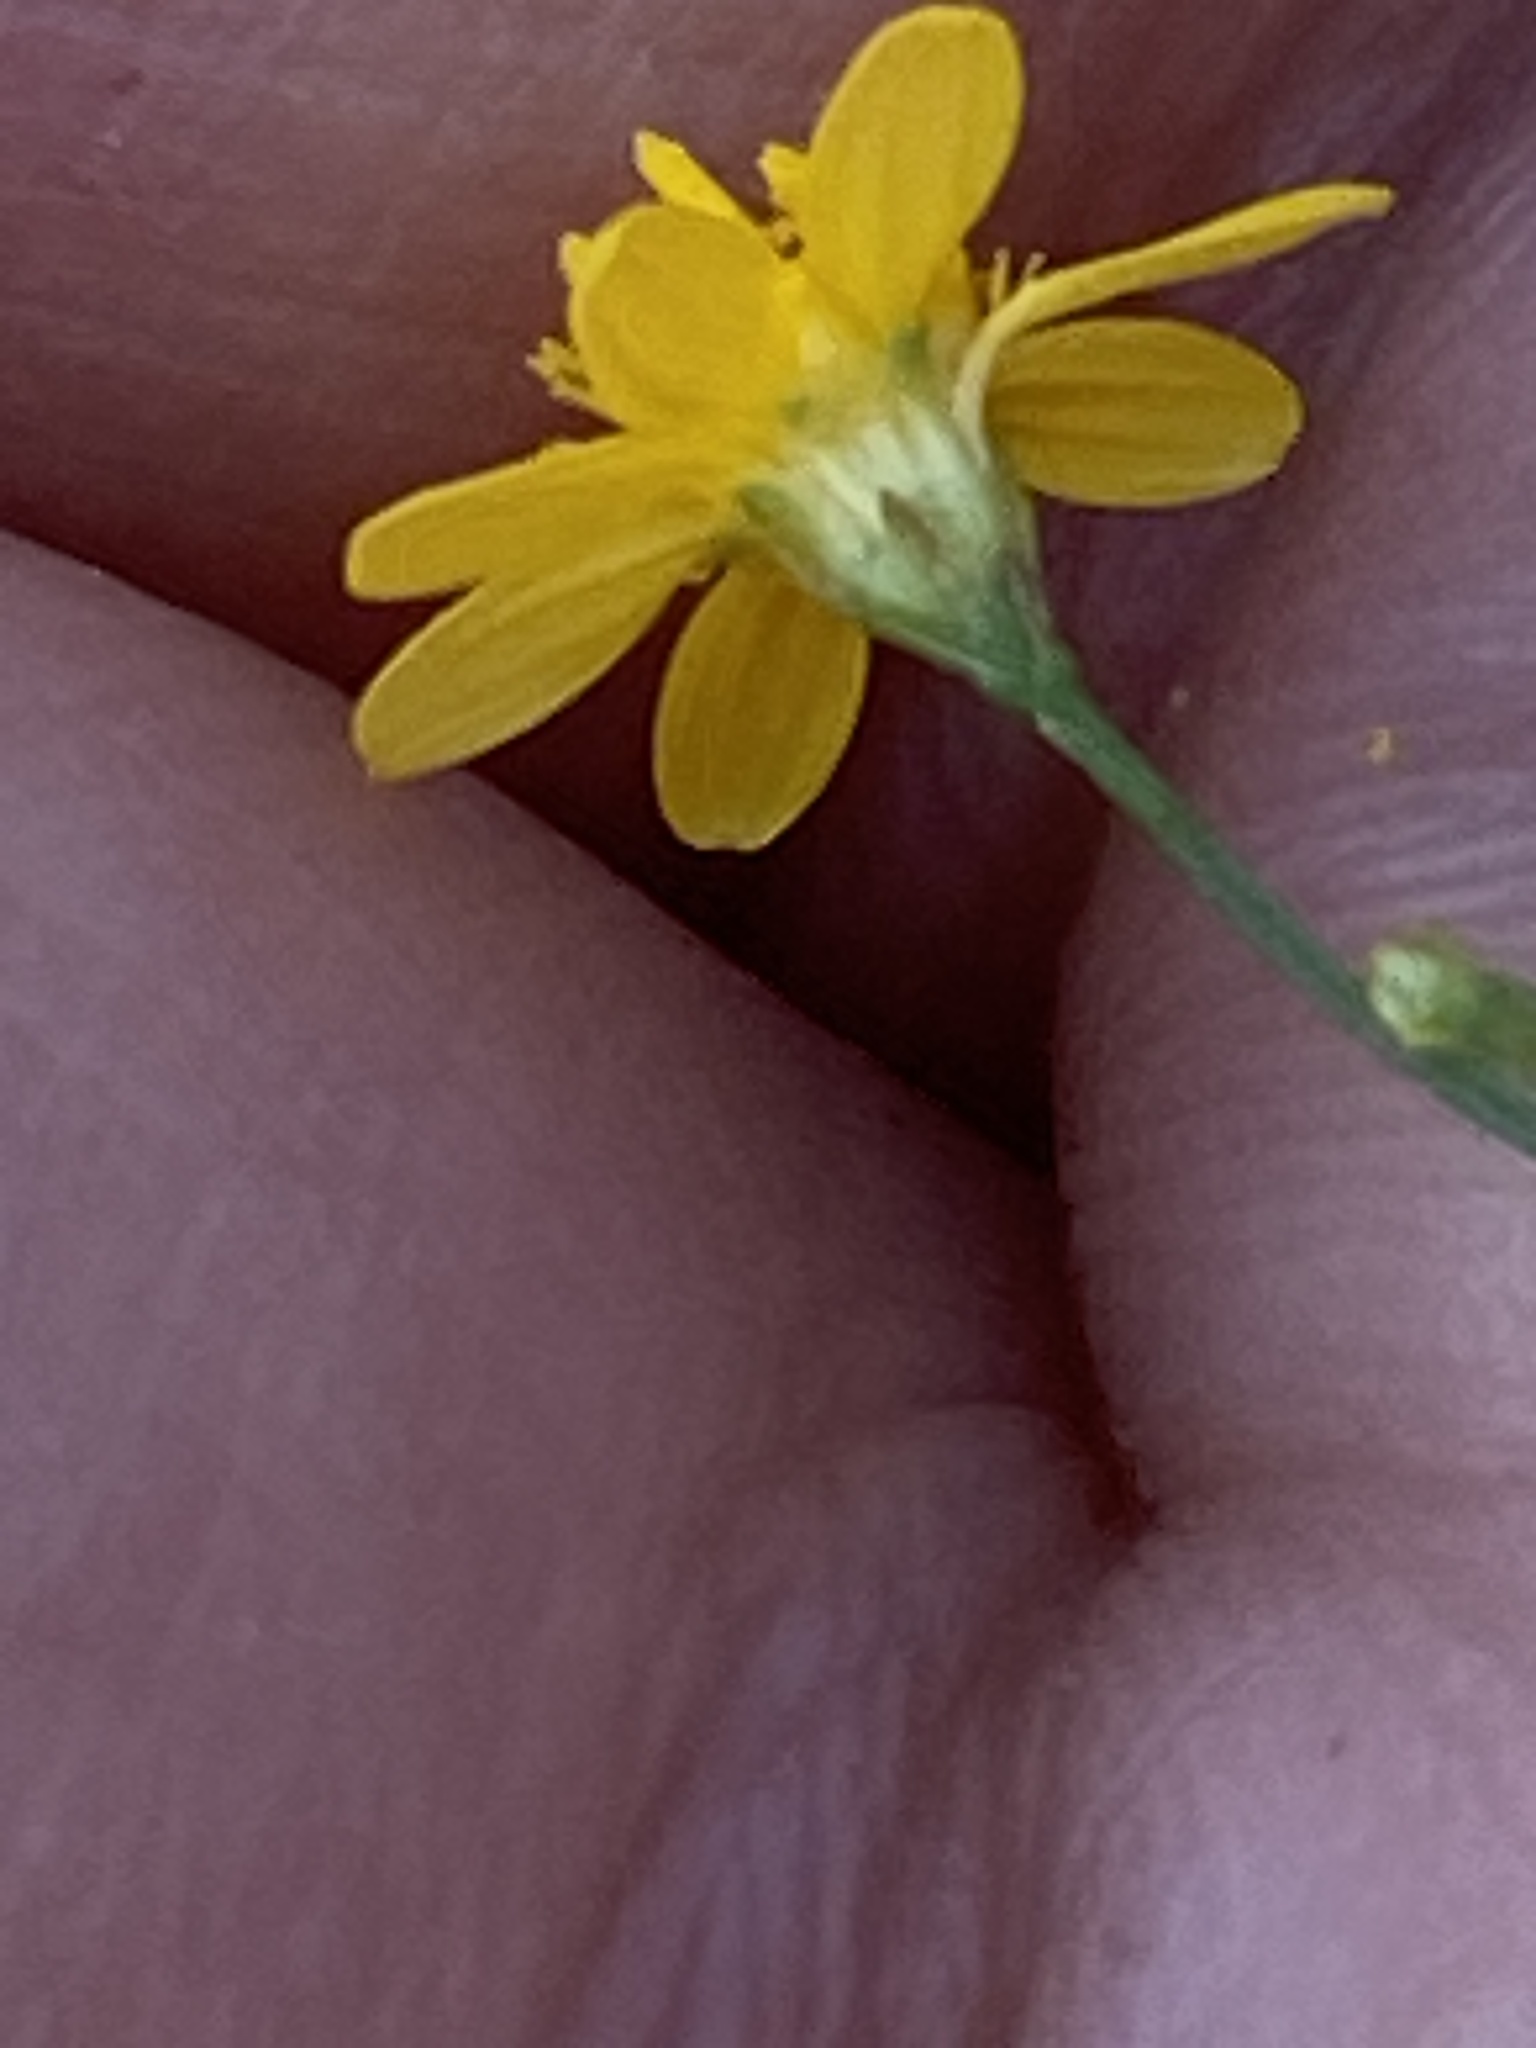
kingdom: Plantae
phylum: Tracheophyta
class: Magnoliopsida
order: Asterales
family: Asteraceae
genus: Gutierrezia
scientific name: Gutierrezia texana
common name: Texas snakeweed
